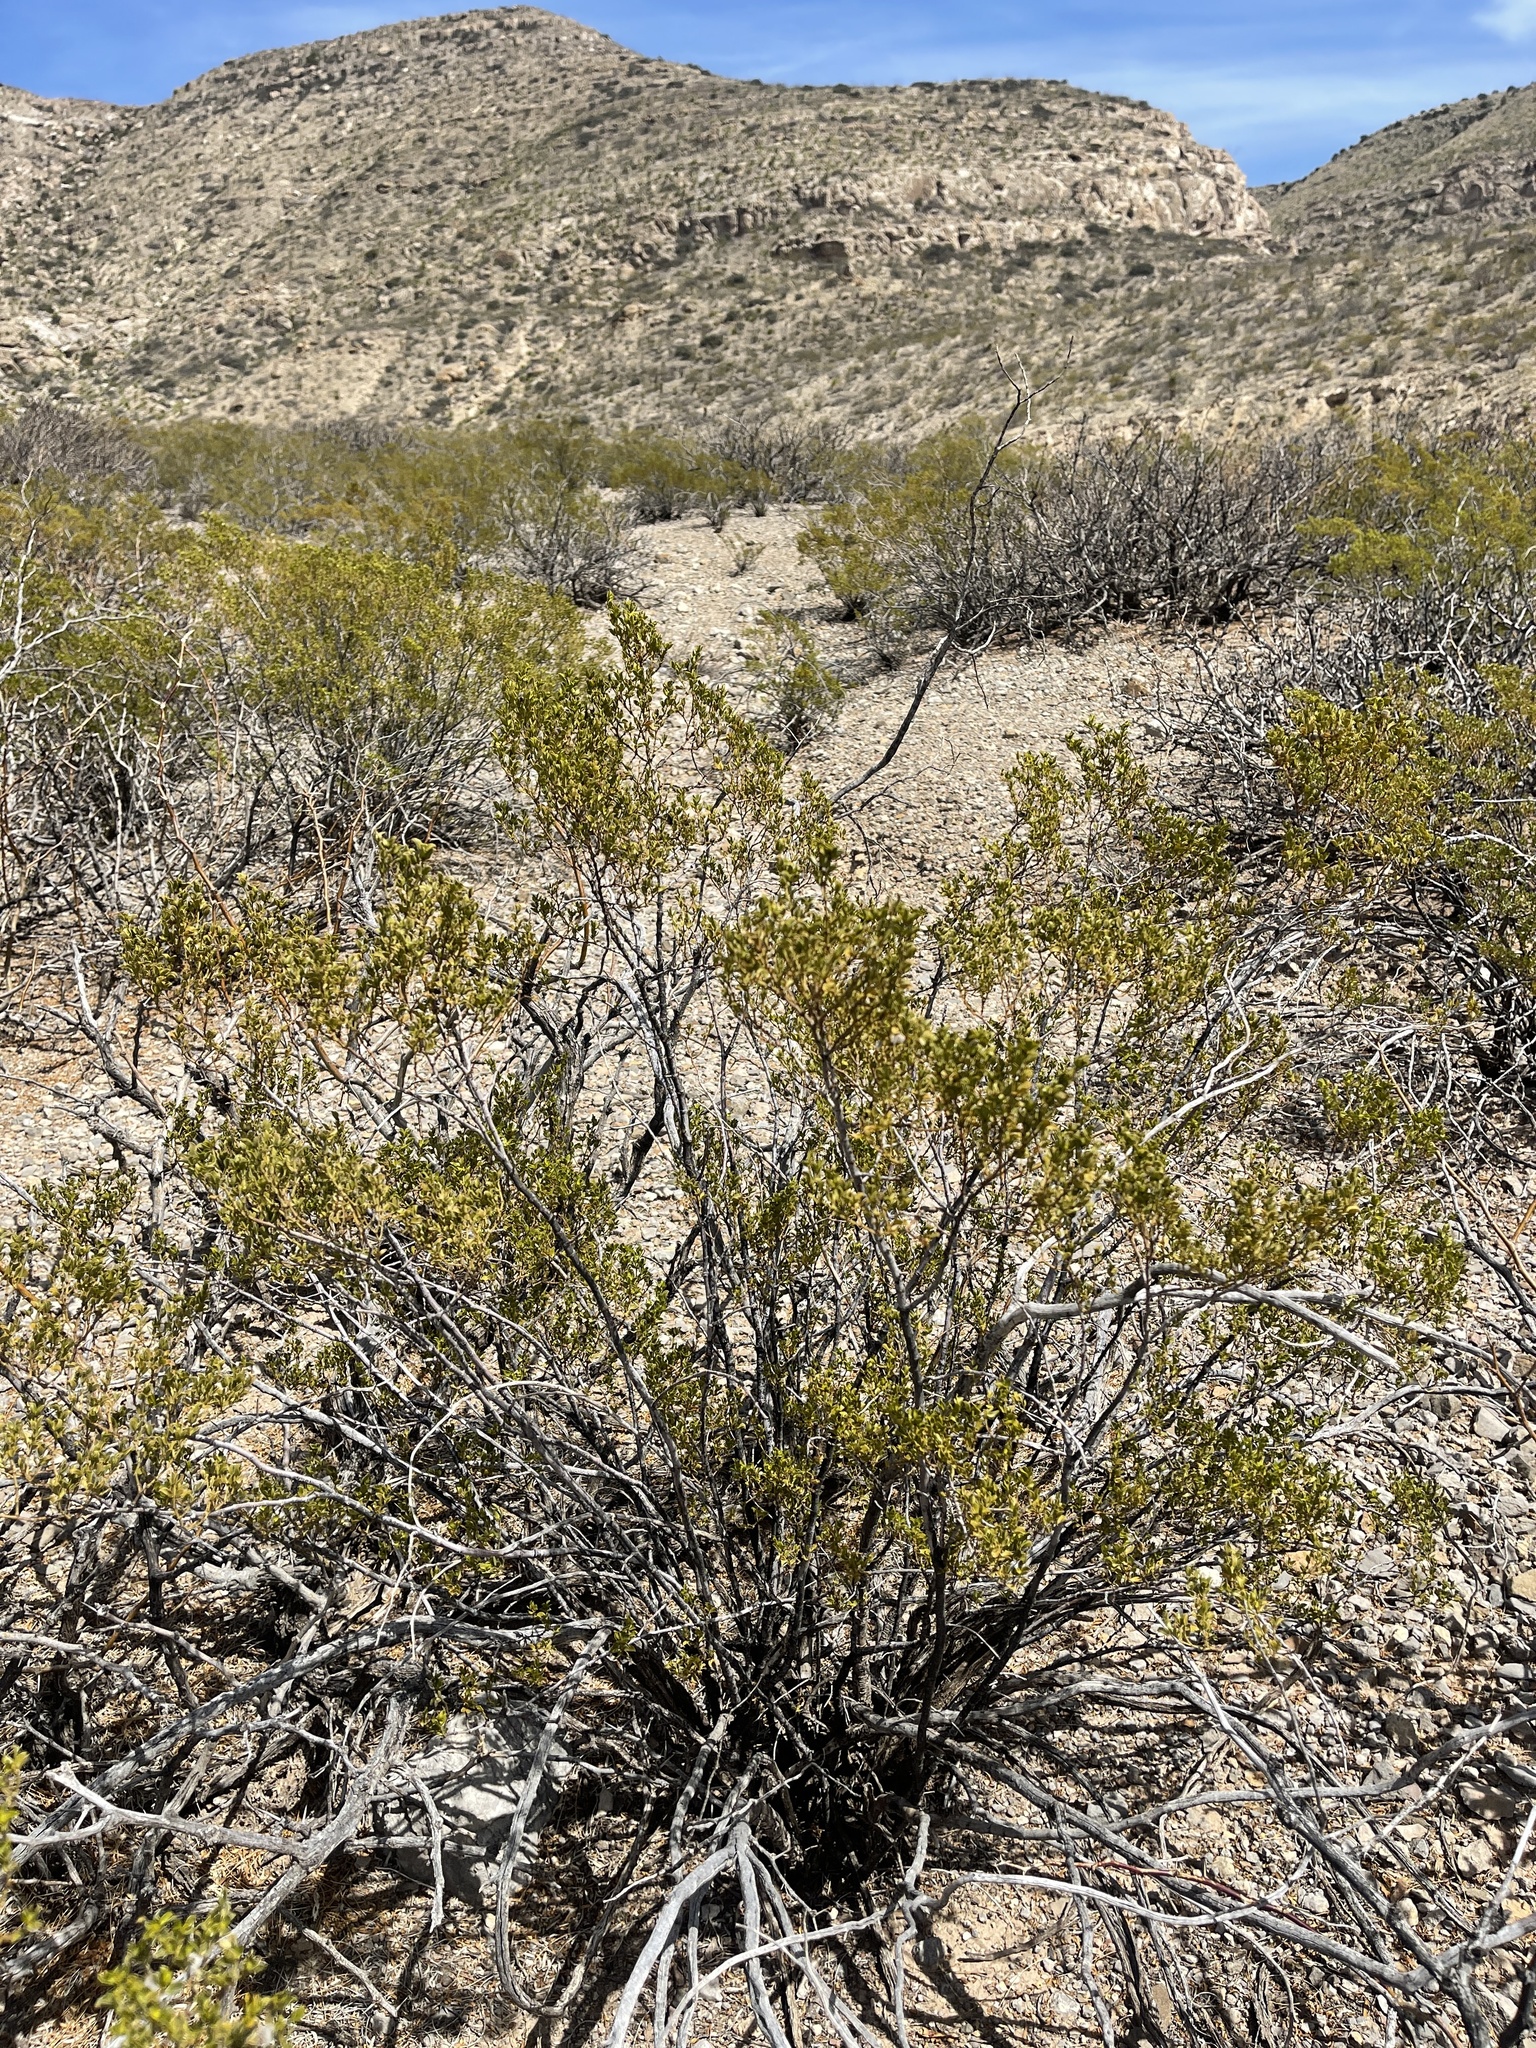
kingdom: Plantae
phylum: Tracheophyta
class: Magnoliopsida
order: Zygophyllales
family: Zygophyllaceae
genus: Larrea
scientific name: Larrea tridentata
